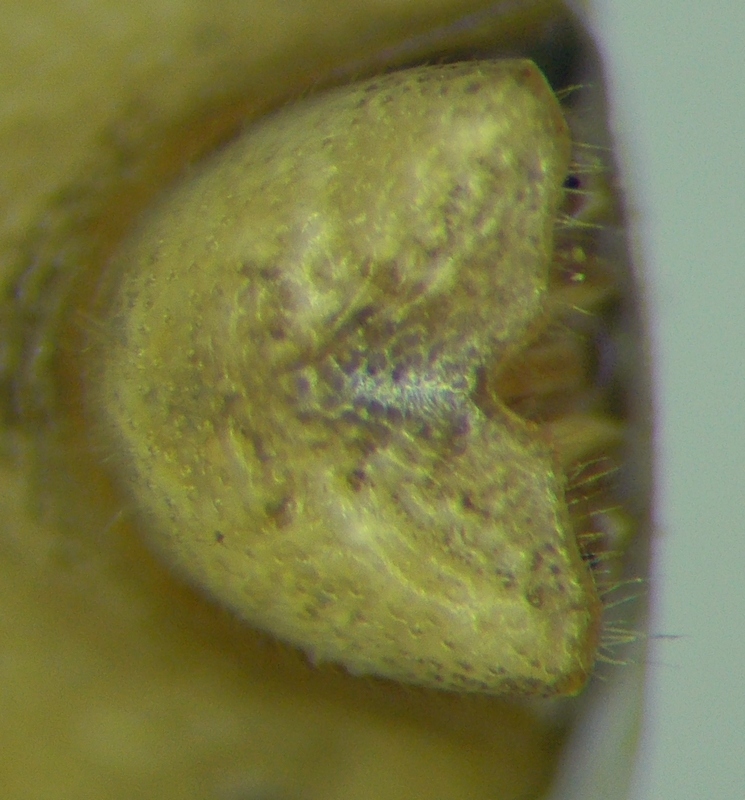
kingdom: Animalia
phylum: Arthropoda
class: Insecta
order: Hemiptera
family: Pentatomidae
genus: Aelia
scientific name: Aelia acuminata
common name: Bishop's mitre
